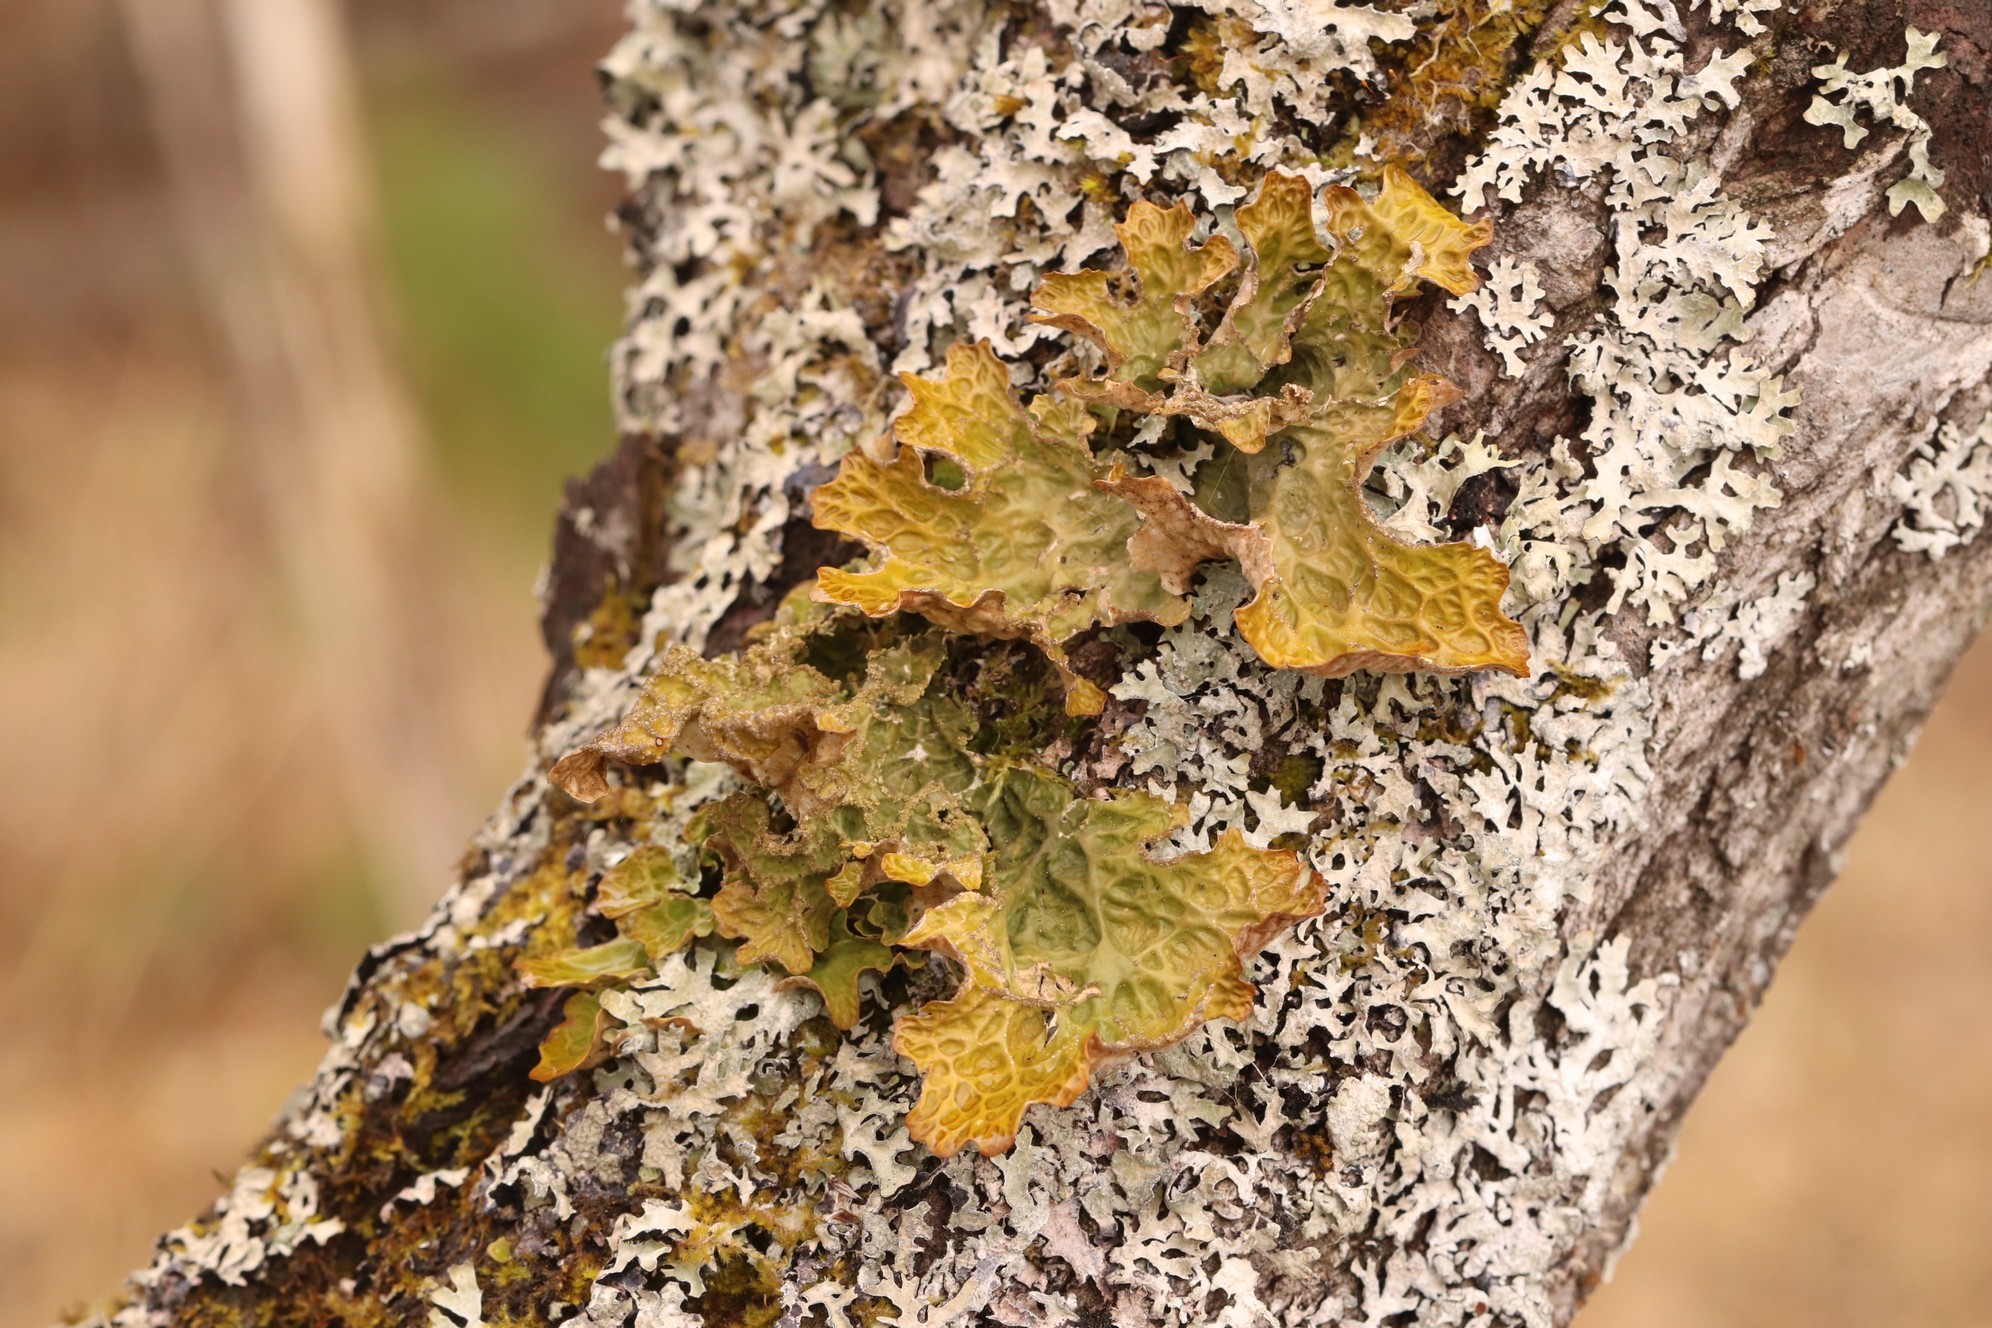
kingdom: Fungi
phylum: Ascomycota
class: Lecanoromycetes
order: Peltigerales
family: Lobariaceae
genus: Lobaria
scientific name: Lobaria pulmonaria
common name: Lungwort
